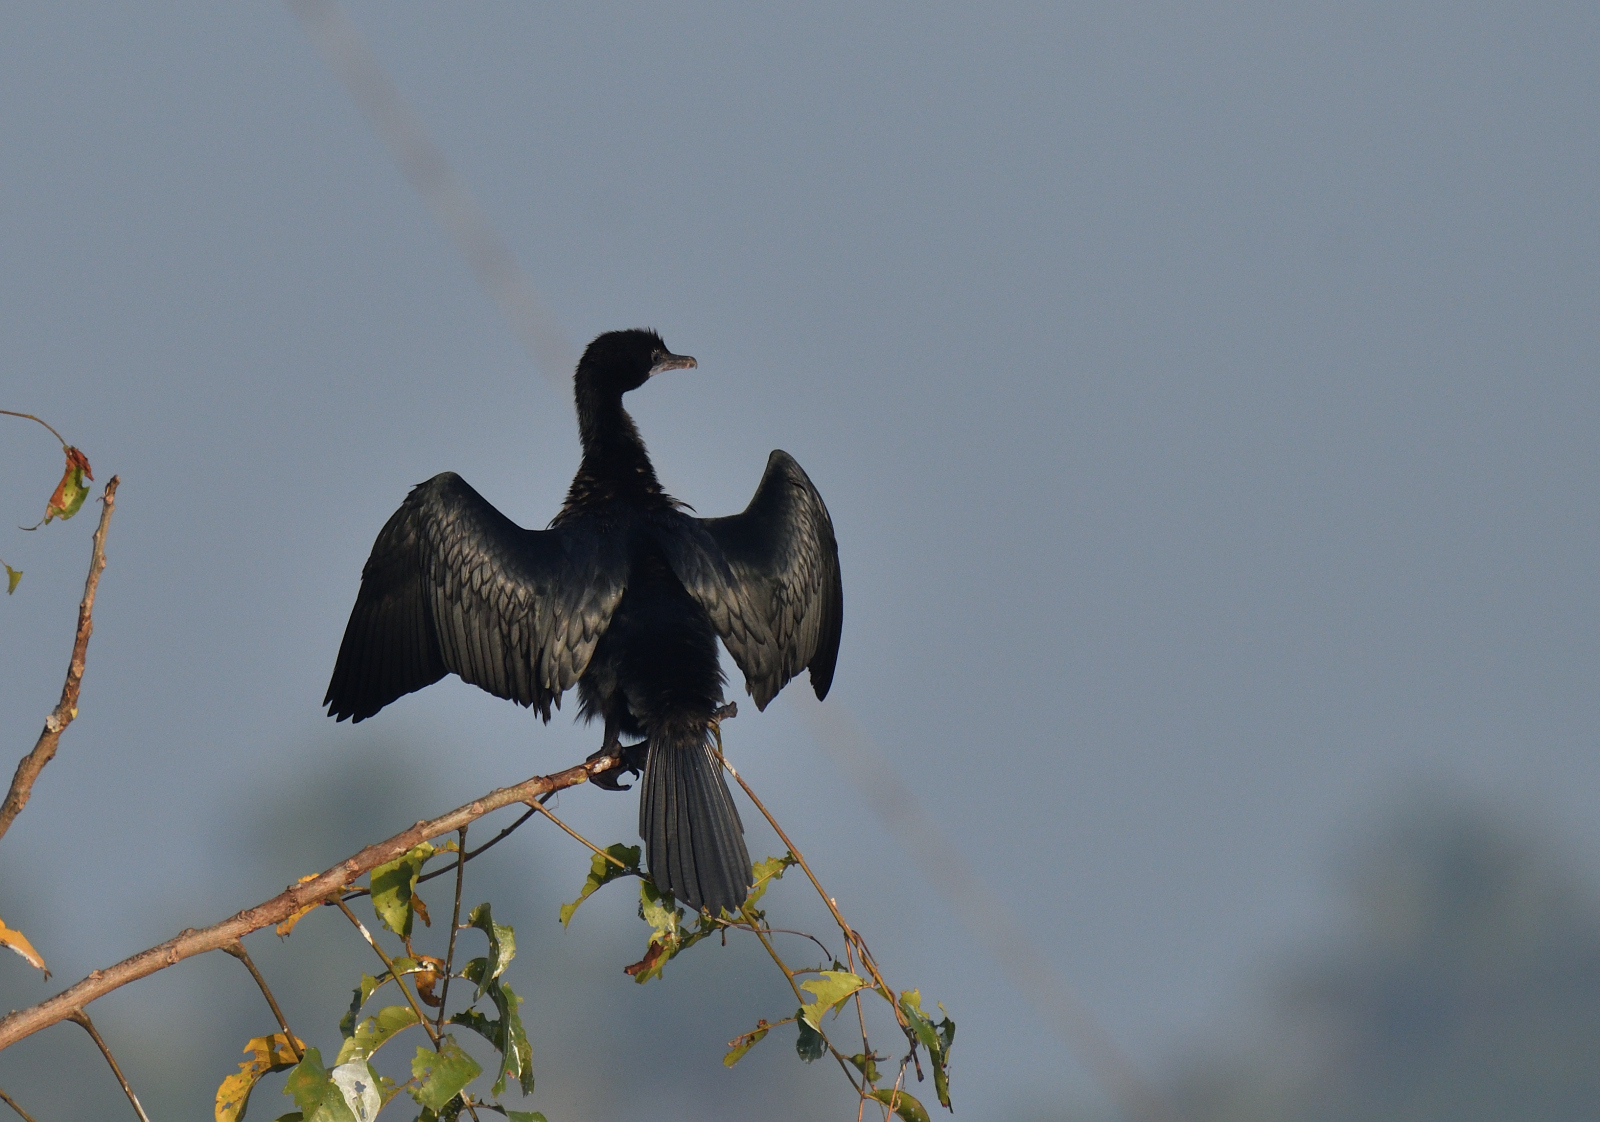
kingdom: Animalia
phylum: Chordata
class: Aves
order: Suliformes
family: Phalacrocoracidae
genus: Microcarbo
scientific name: Microcarbo niger
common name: Little cormorant
